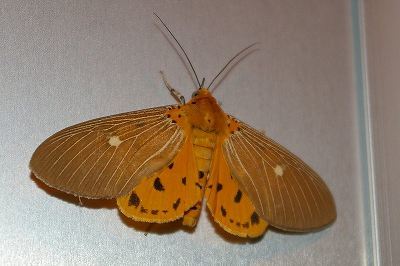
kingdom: Animalia
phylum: Arthropoda
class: Insecta
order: Lepidoptera
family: Erebidae
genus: Asota
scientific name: Asota caricae
